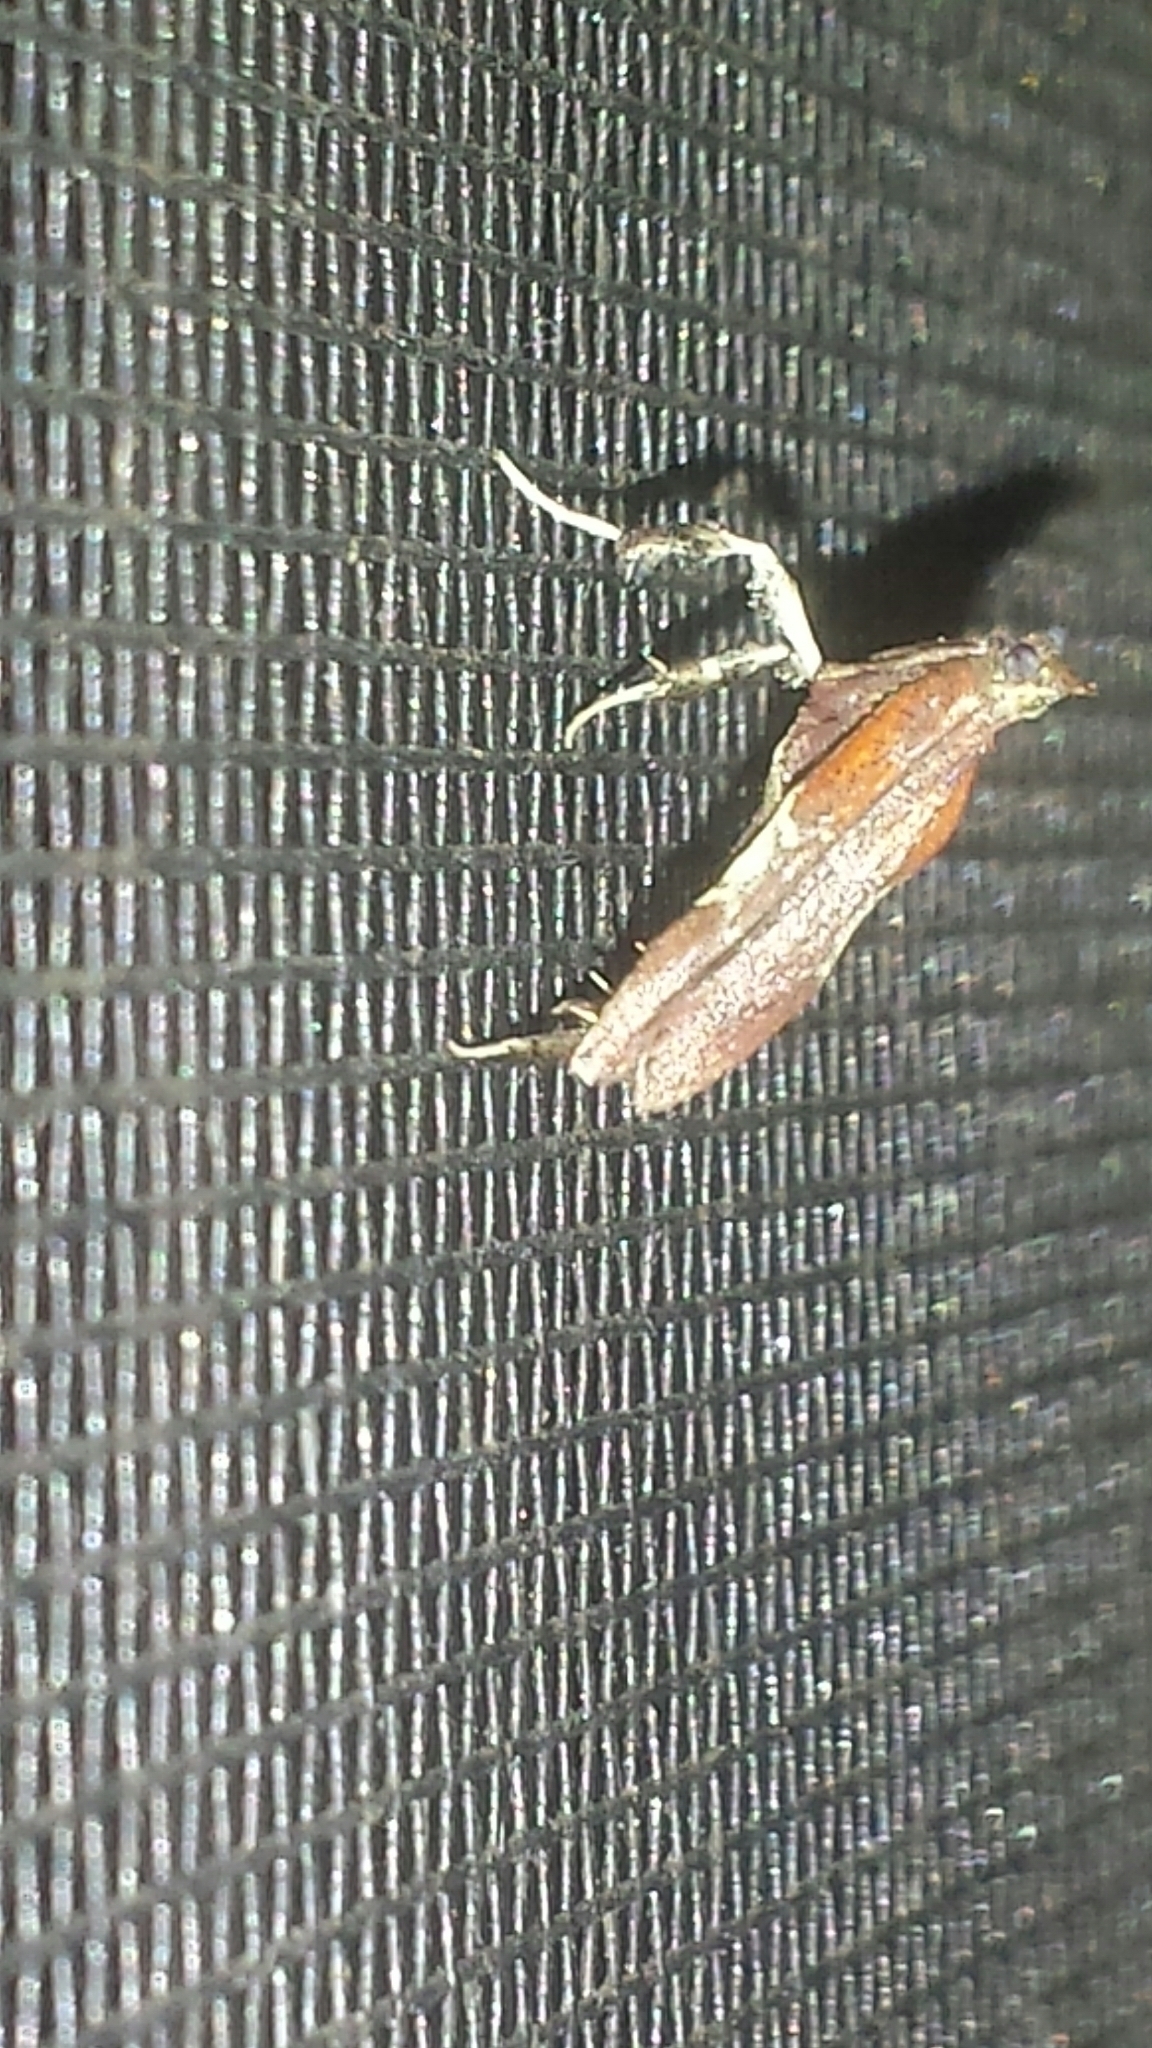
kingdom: Animalia
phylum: Arthropoda
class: Insecta
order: Lepidoptera
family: Pyralidae
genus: Galasa
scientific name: Galasa nigrinodis
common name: Boxwood leaftier moth
